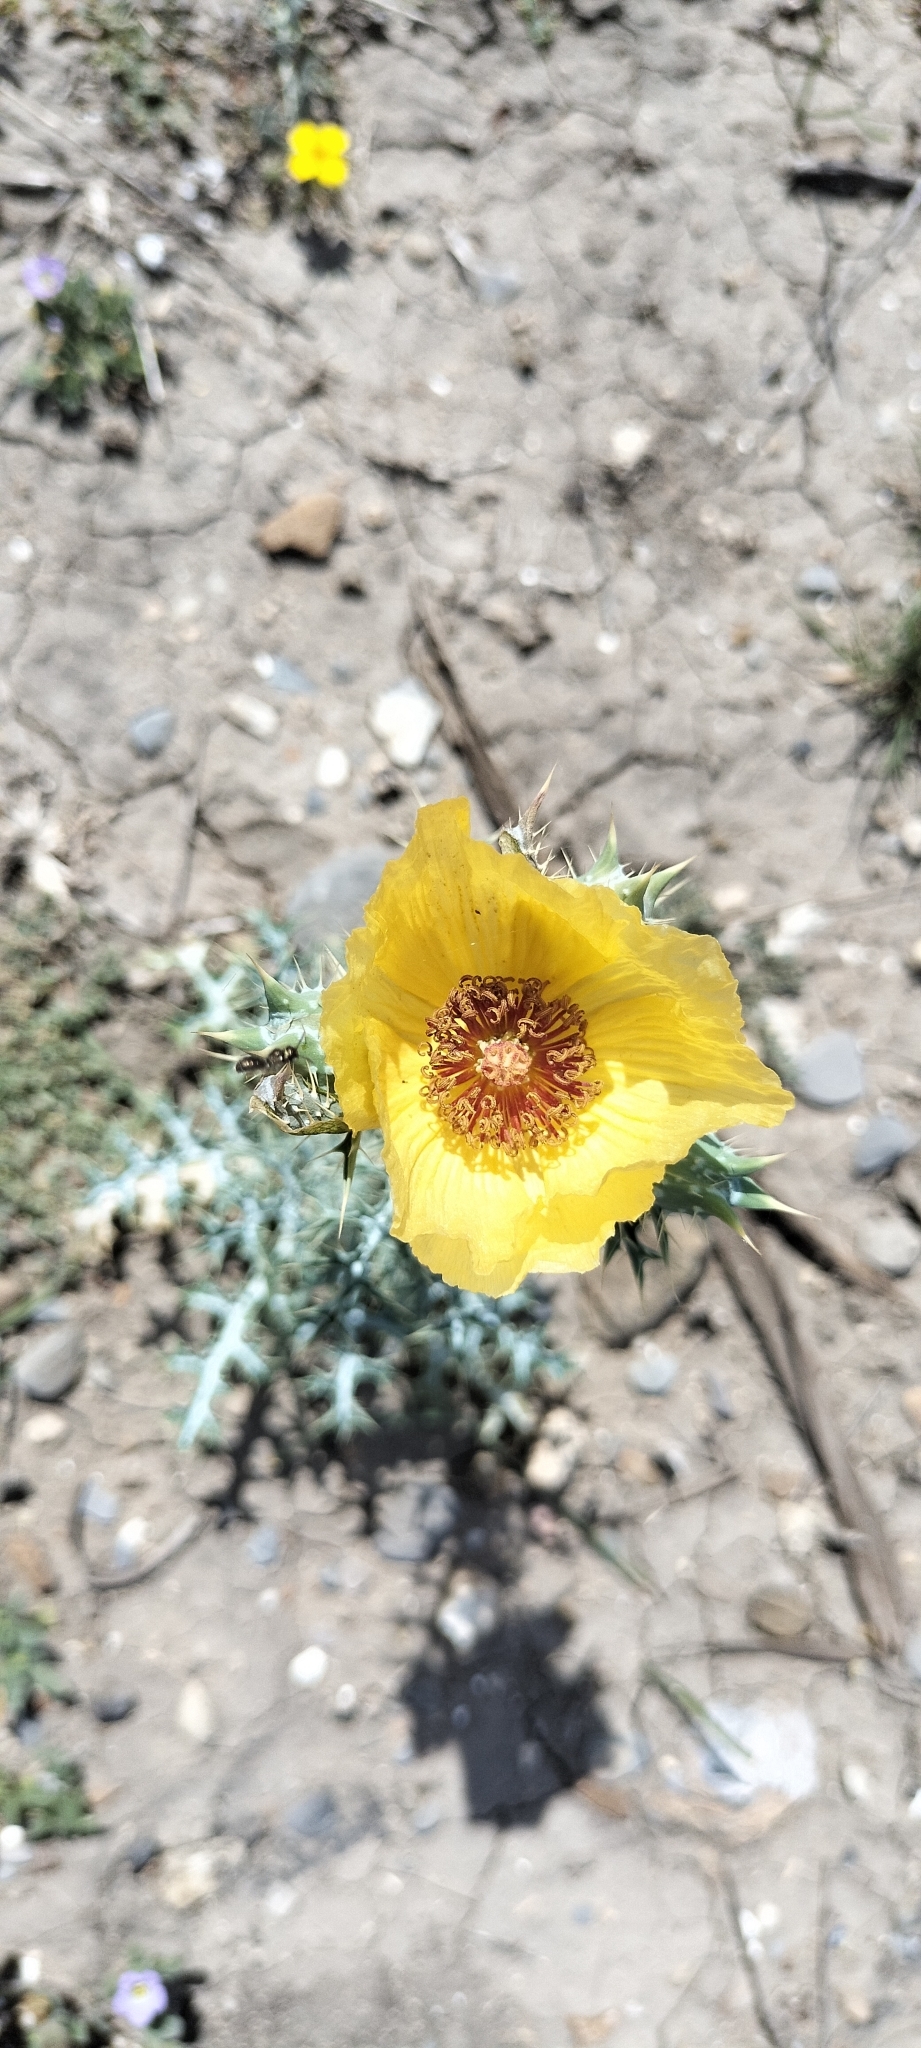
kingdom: Plantae
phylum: Tracheophyta
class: Magnoliopsida
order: Ranunculales
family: Papaveraceae
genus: Argemone
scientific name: Argemone aenea
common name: Golden prickly-poppy
